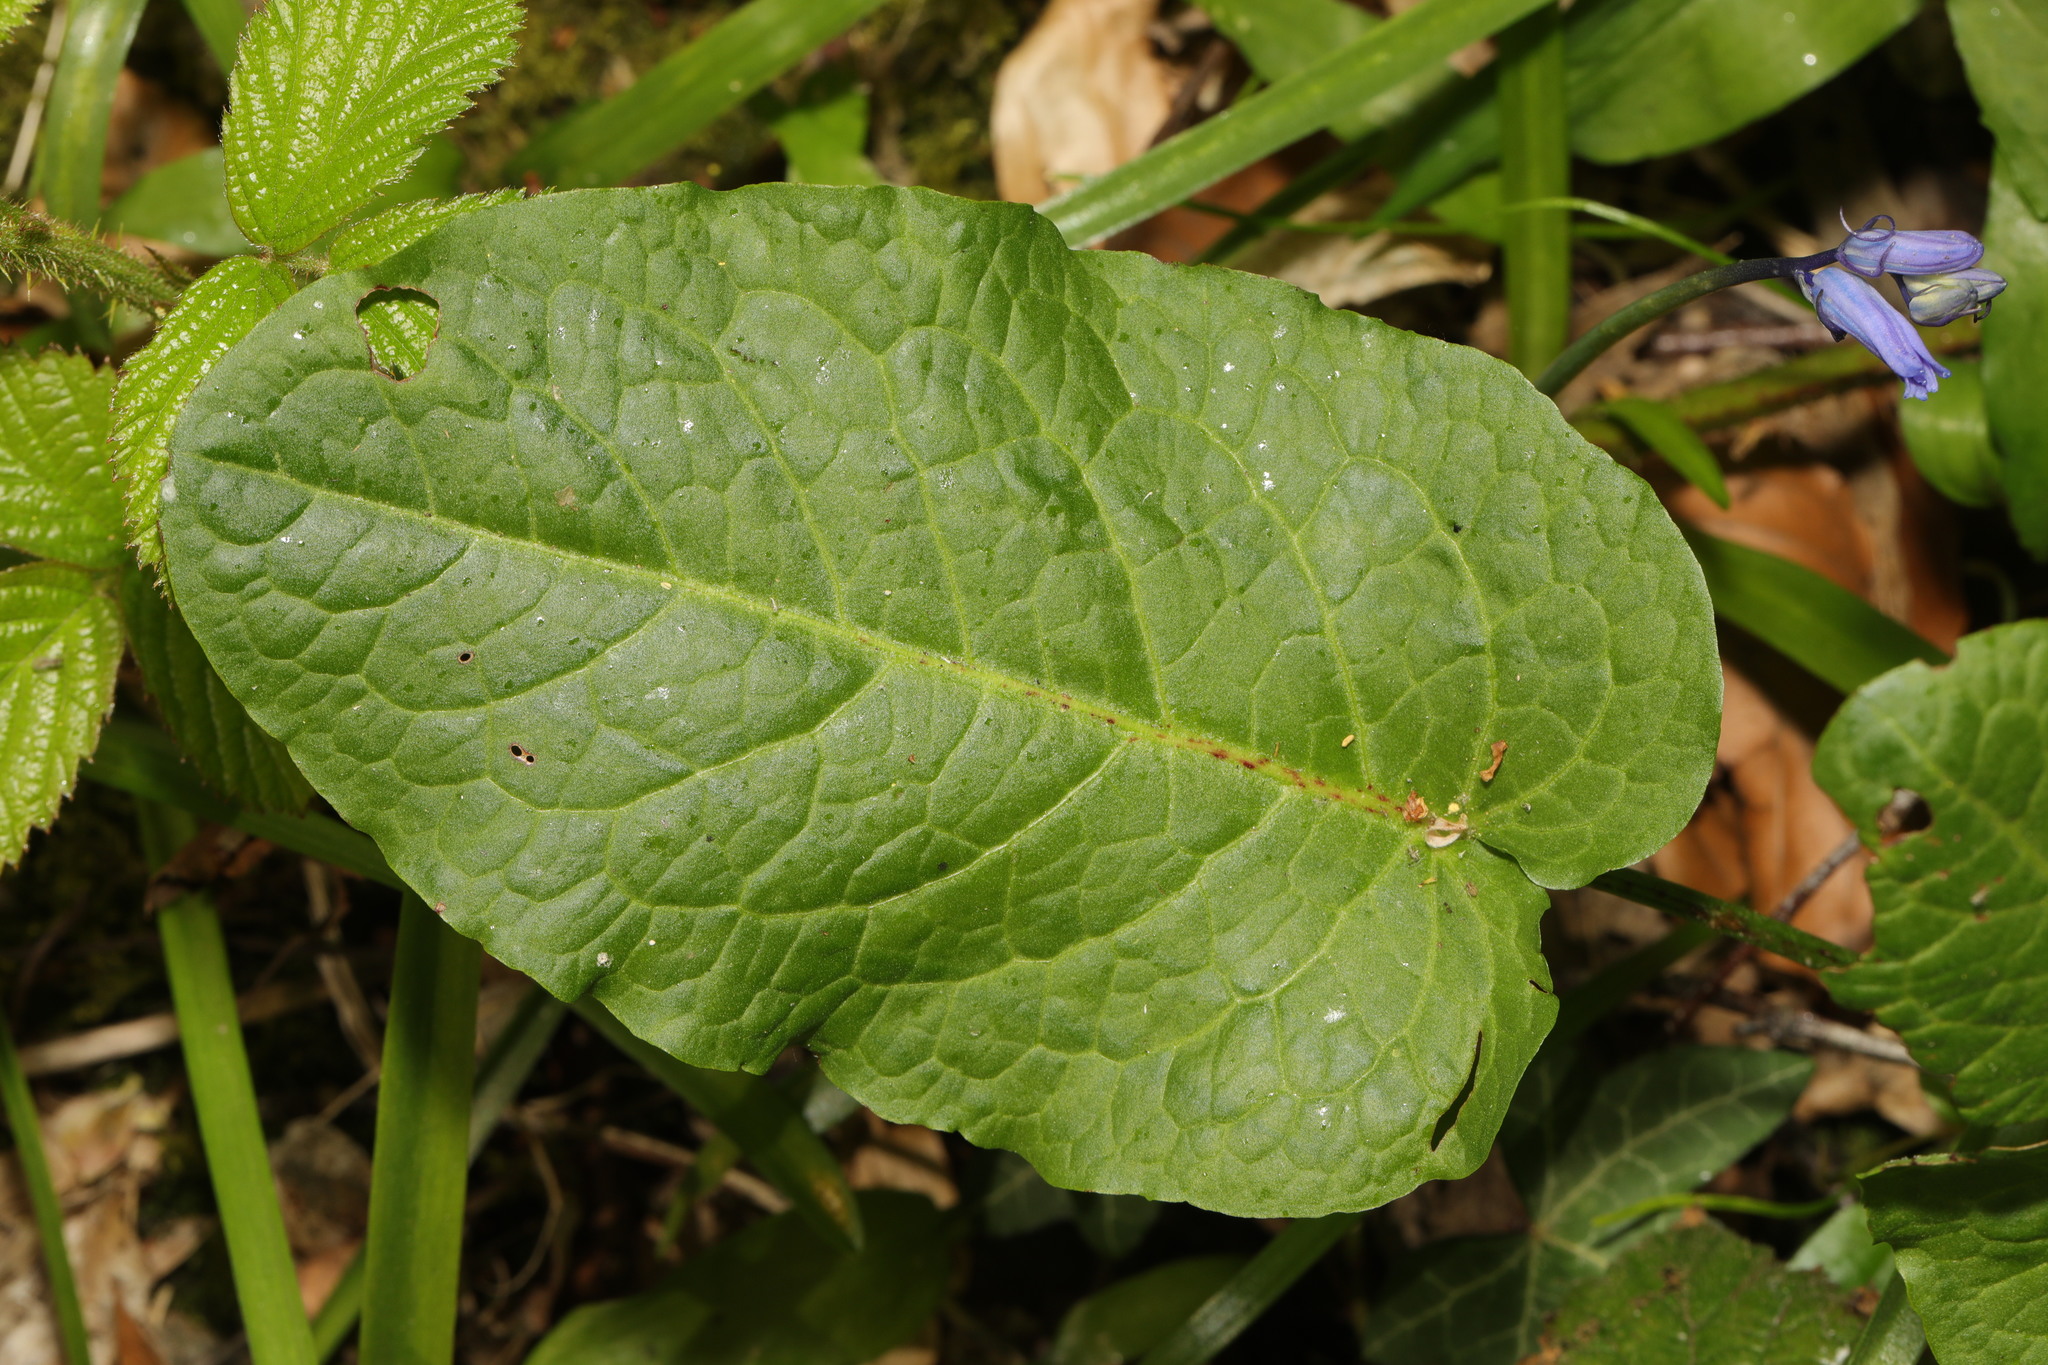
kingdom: Plantae
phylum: Tracheophyta
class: Magnoliopsida
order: Caryophyllales
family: Polygonaceae
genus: Rumex
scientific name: Rumex obtusifolius
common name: Bitter dock
